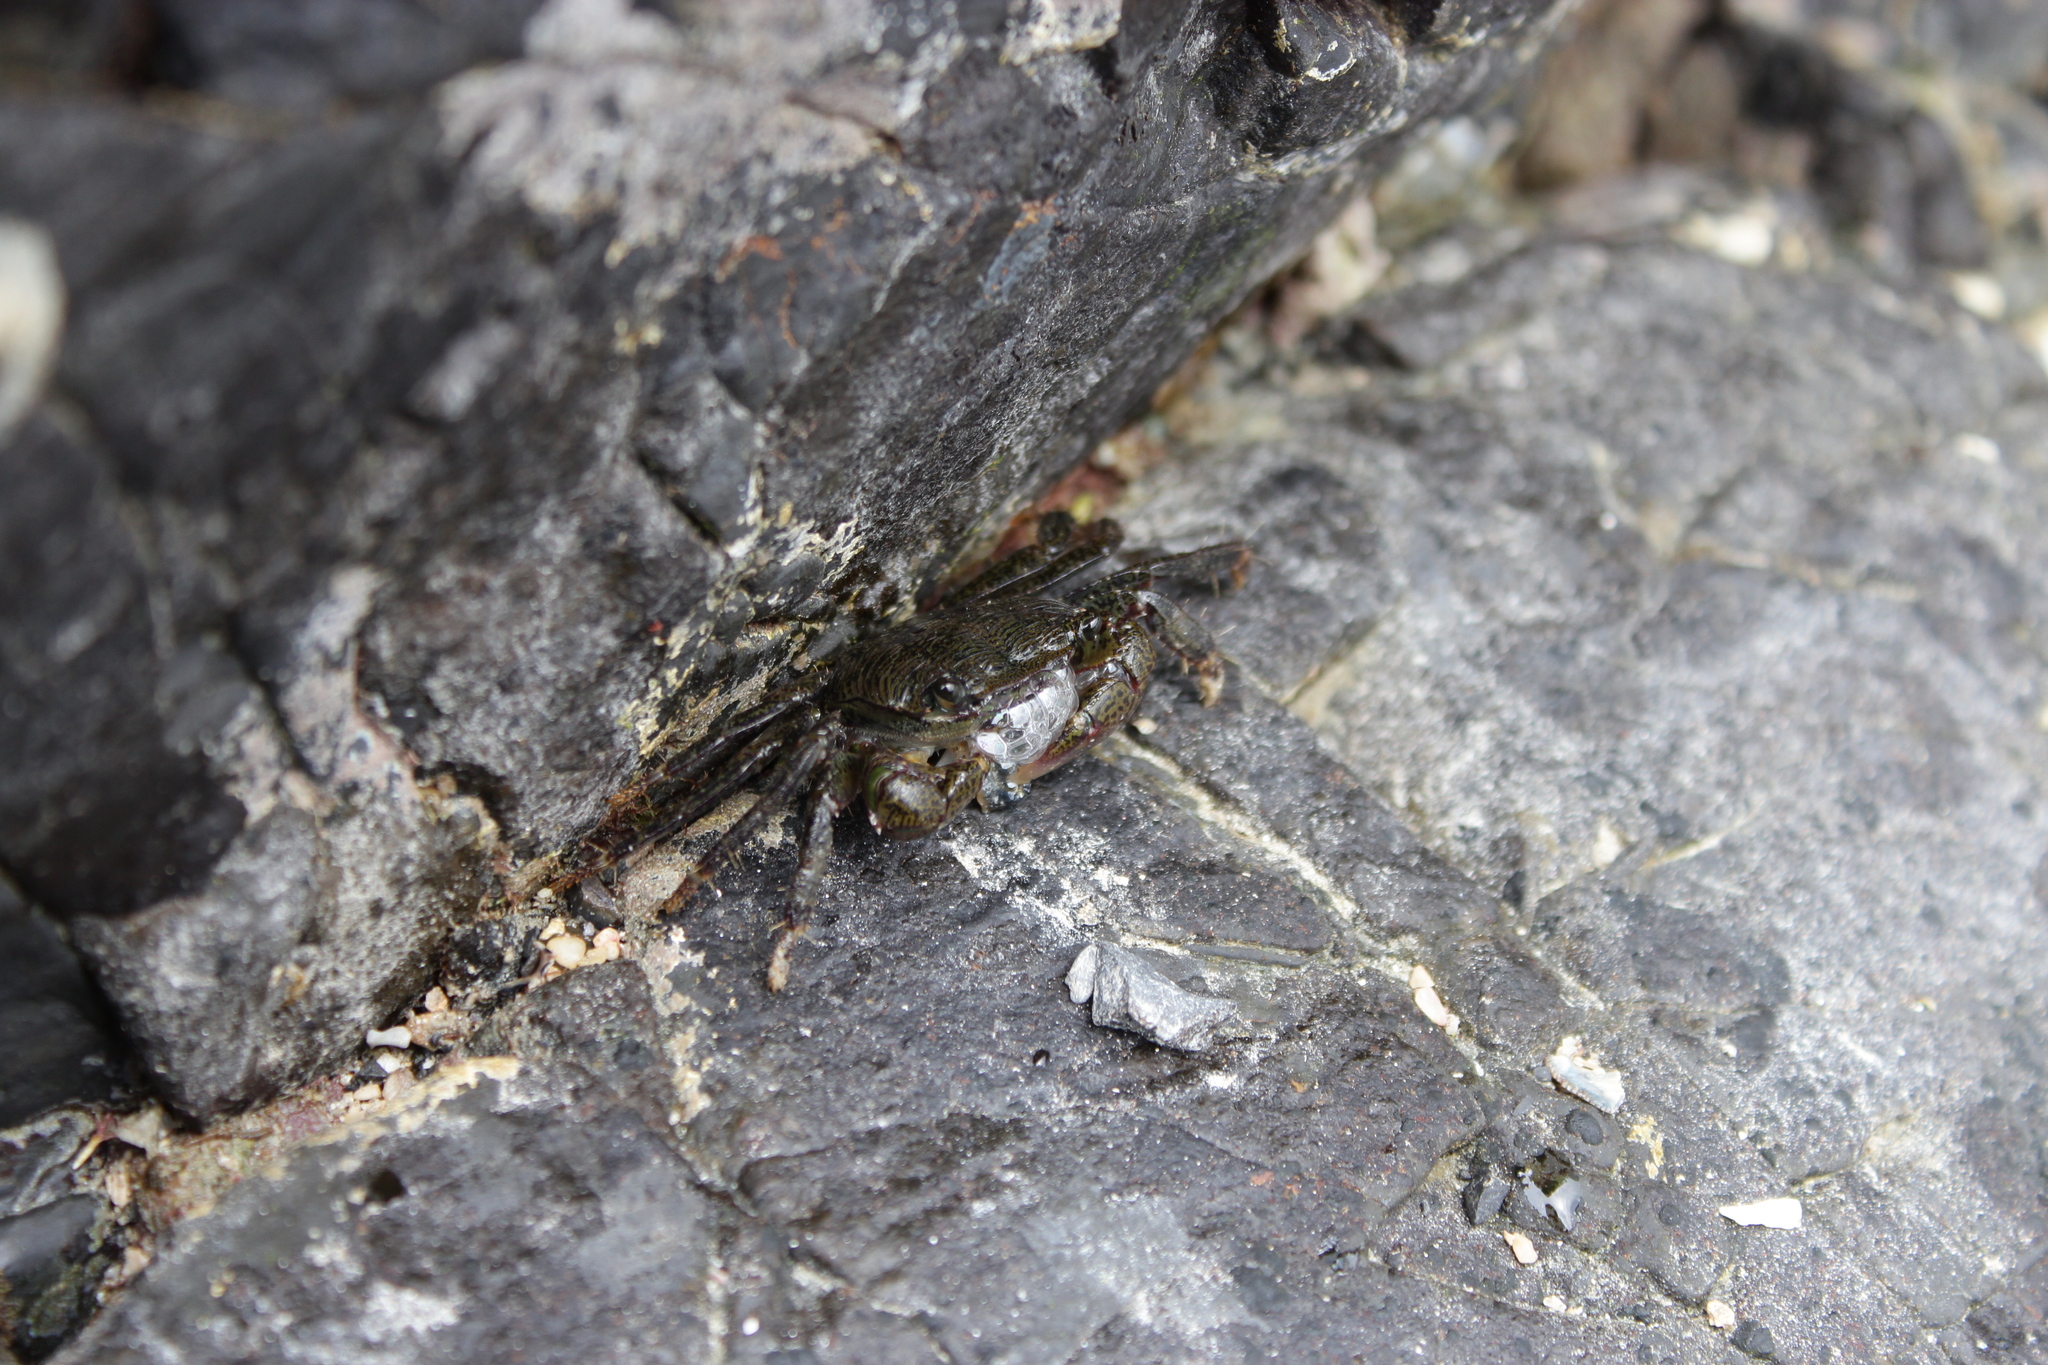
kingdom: Animalia
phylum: Arthropoda
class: Malacostraca
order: Decapoda
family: Grapsidae
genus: Pachygrapsus
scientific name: Pachygrapsus crassipes
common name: Striped shore crab
